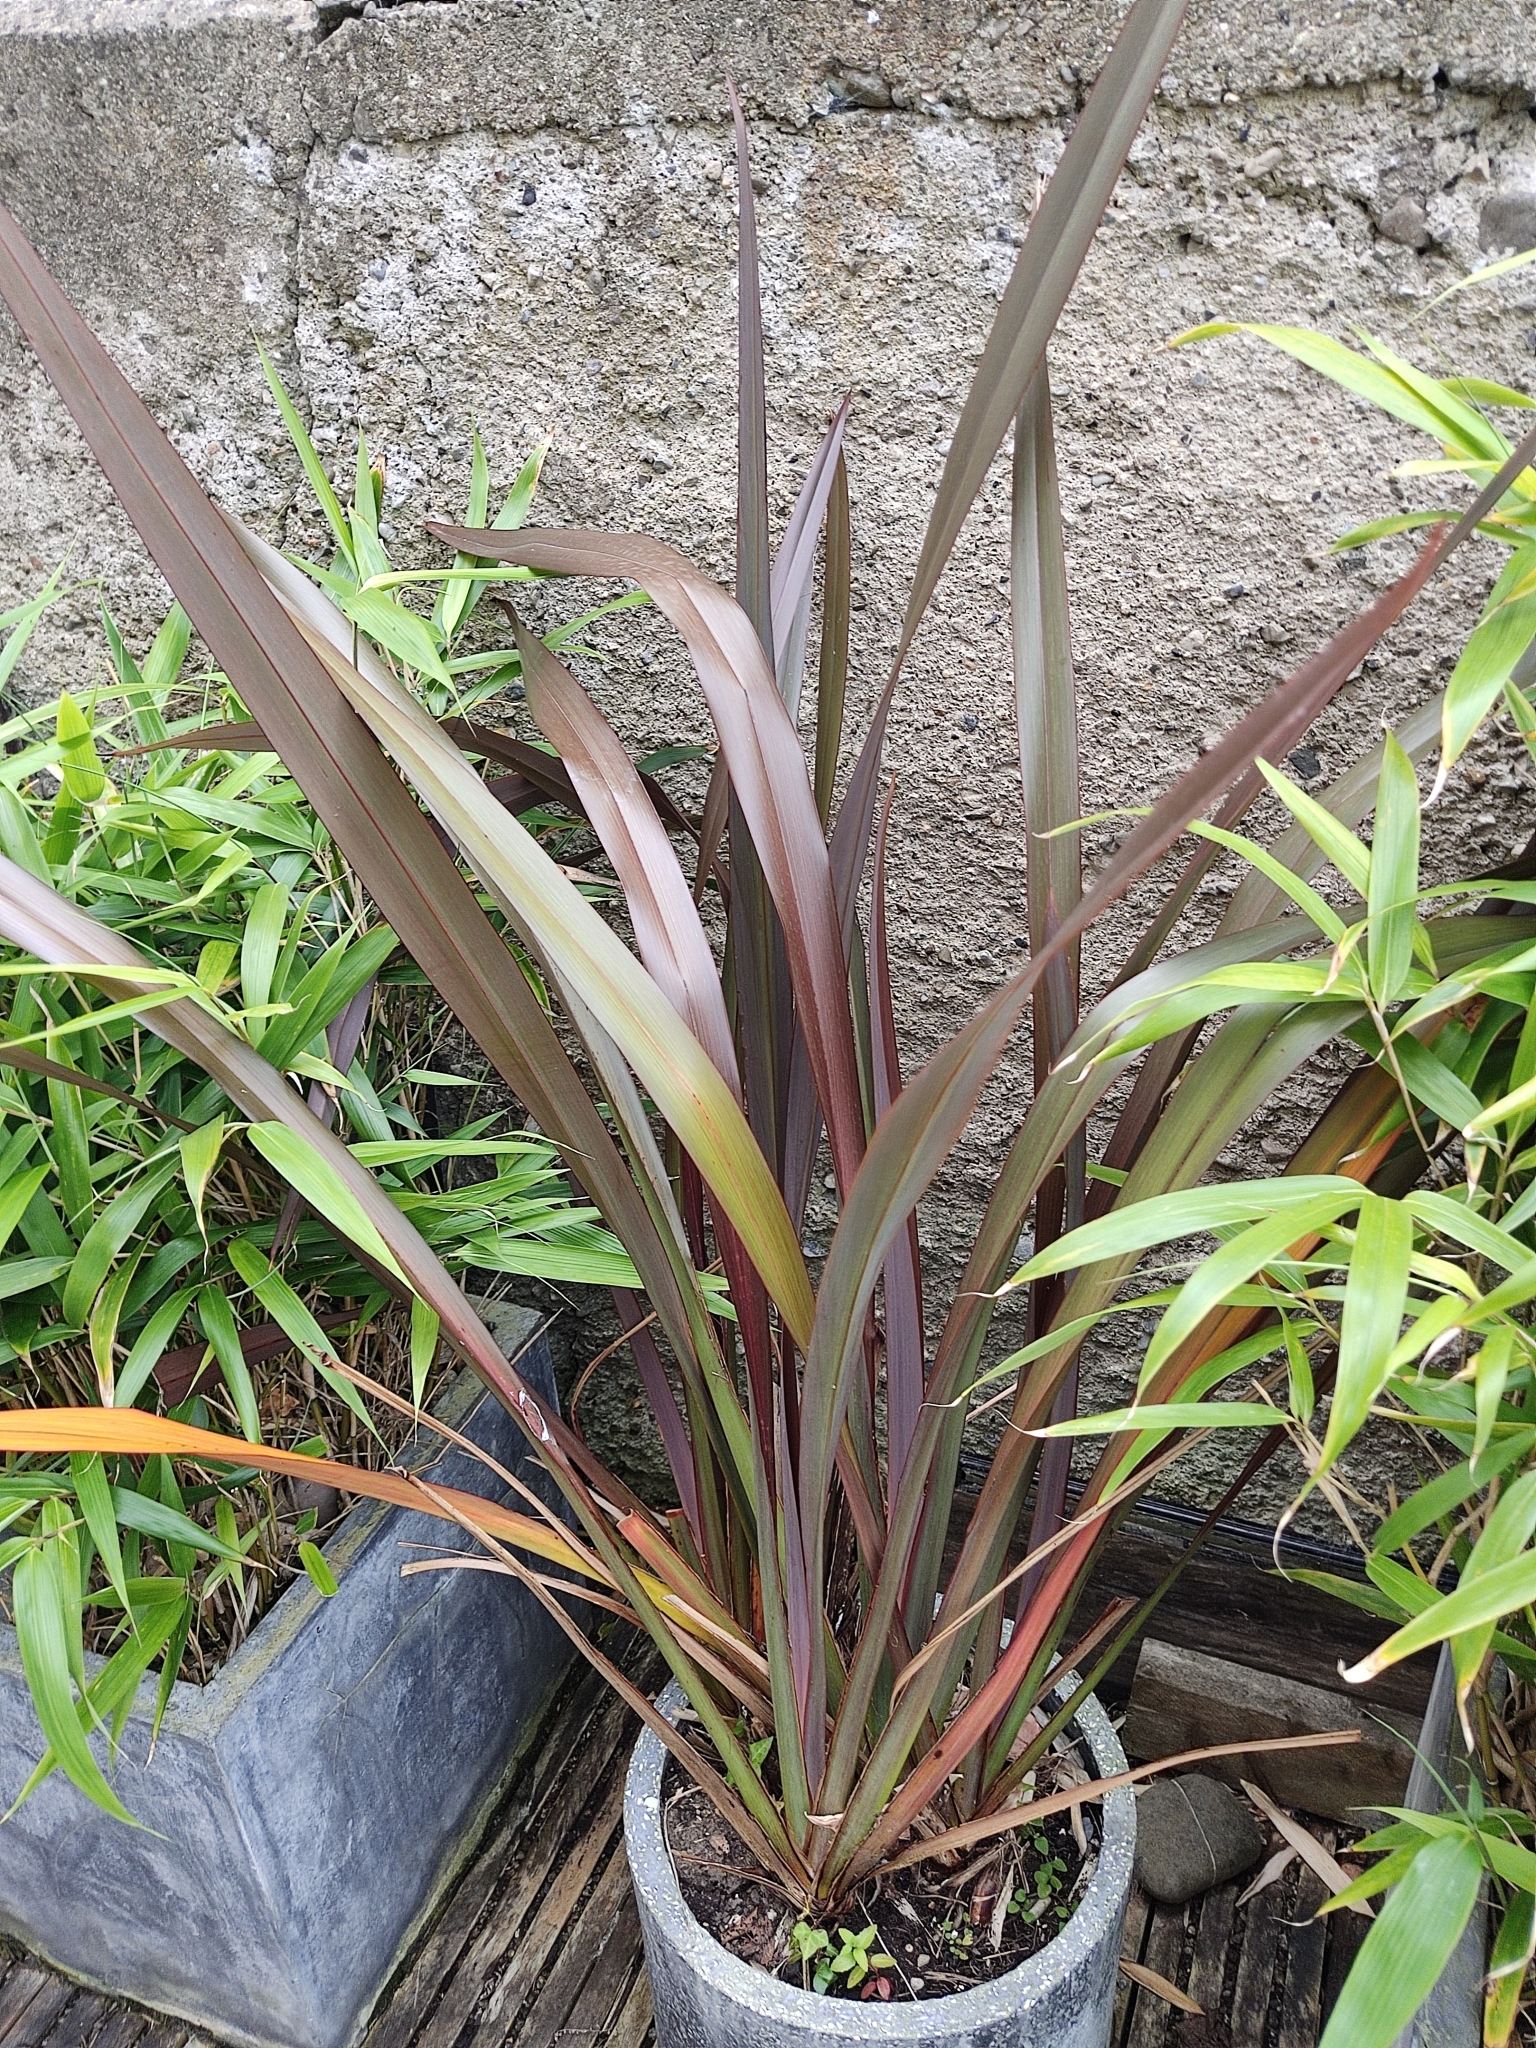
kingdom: Plantae
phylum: Tracheophyta
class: Liliopsida
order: Asparagales
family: Asphodelaceae
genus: Phormium
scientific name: Phormium tenax
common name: New zealand flax
